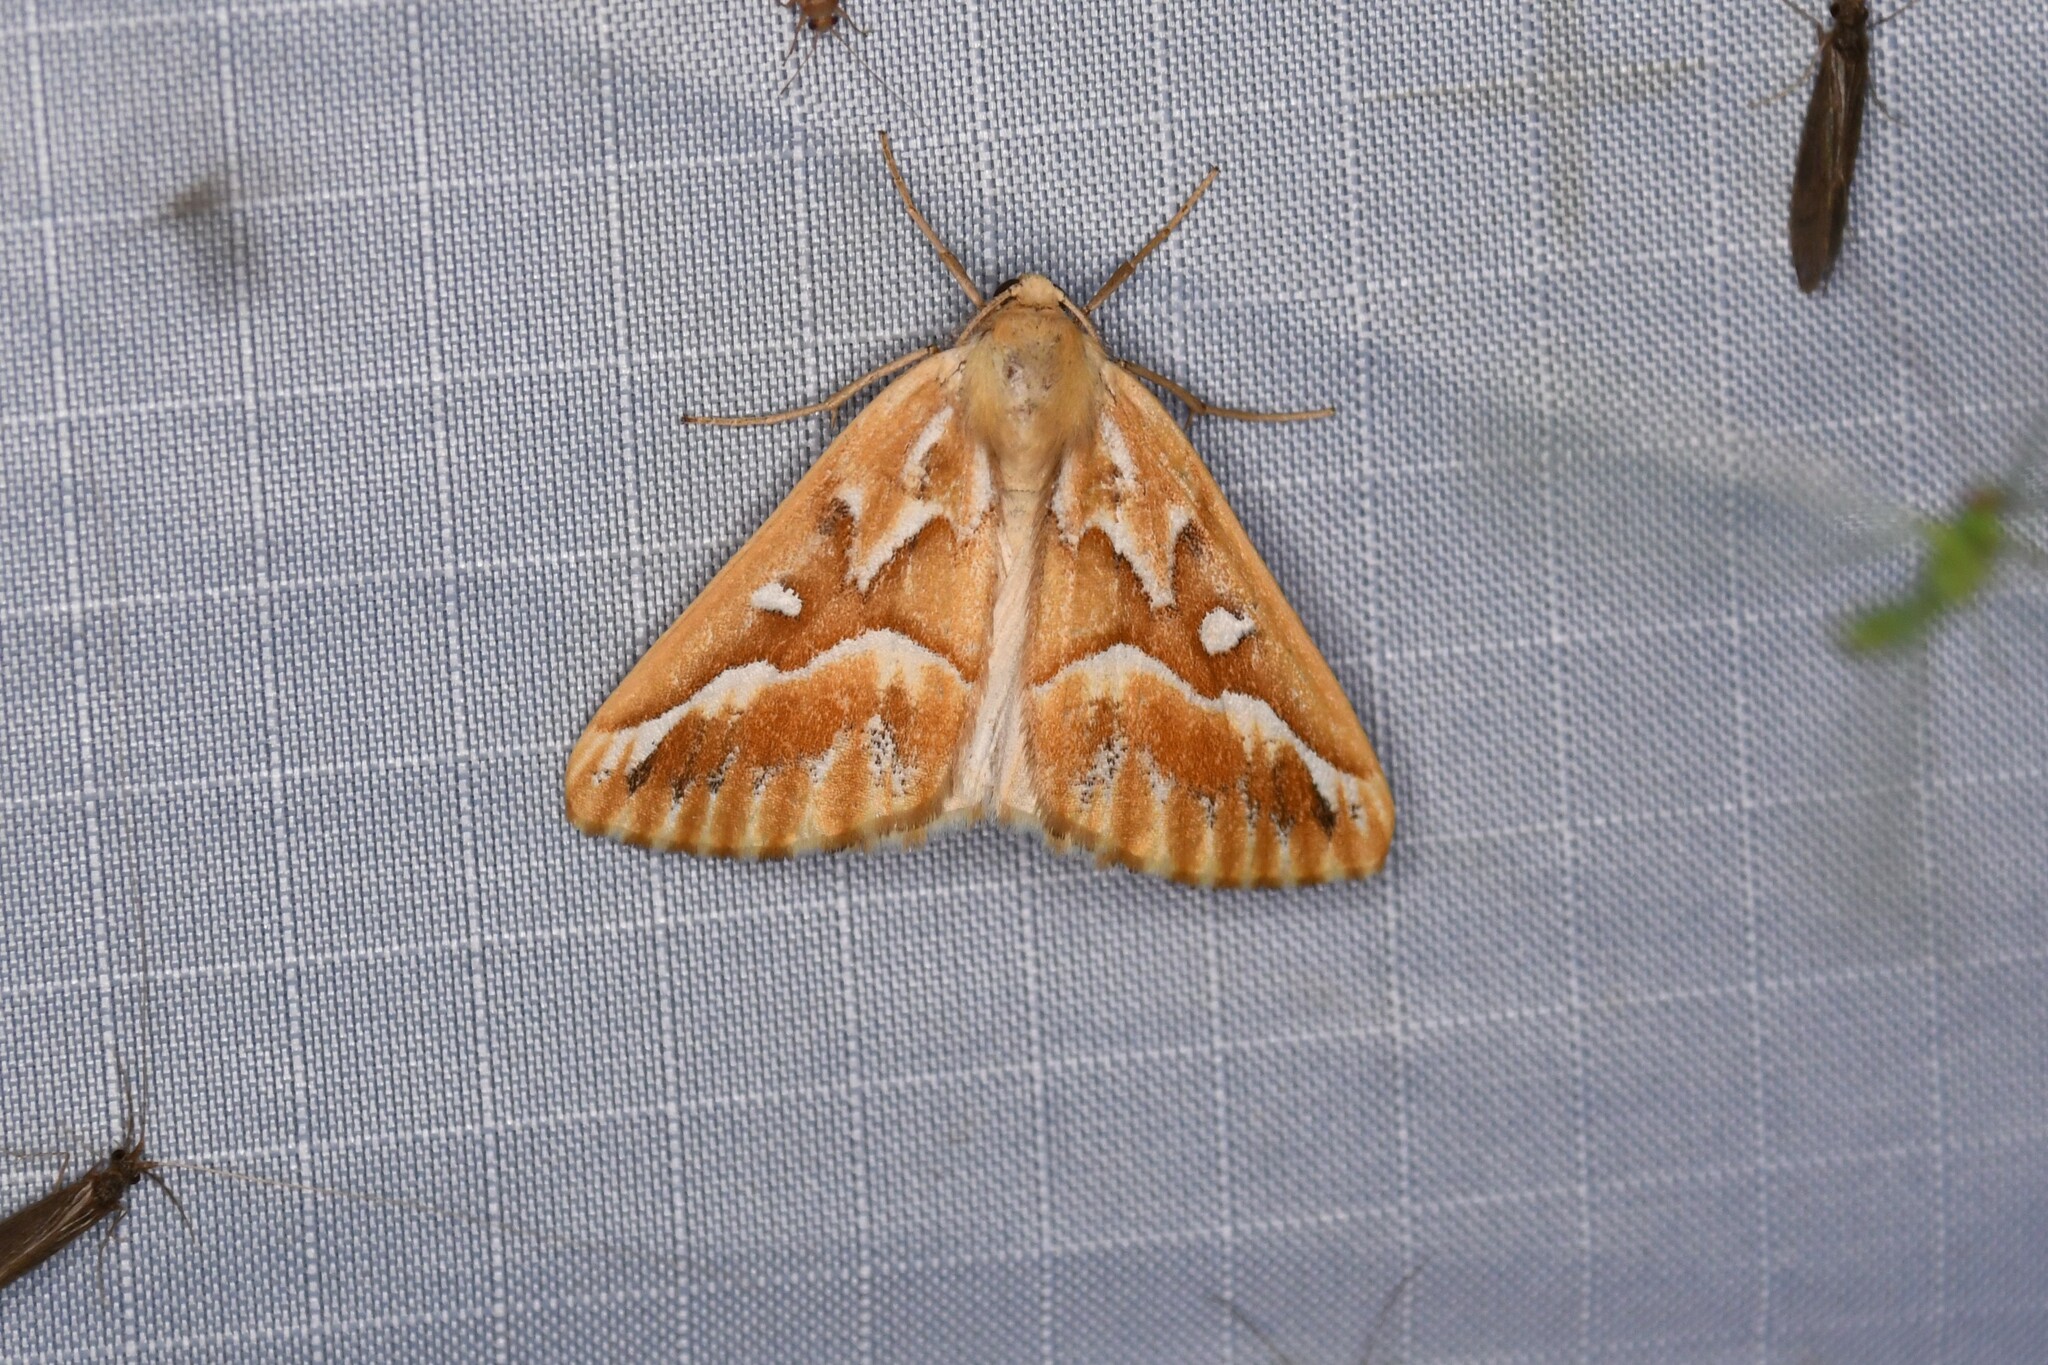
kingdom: Animalia
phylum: Arthropoda
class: Insecta
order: Lepidoptera
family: Geometridae
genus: Caripeta
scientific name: Caripeta piniata
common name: Northern pine looper moth
